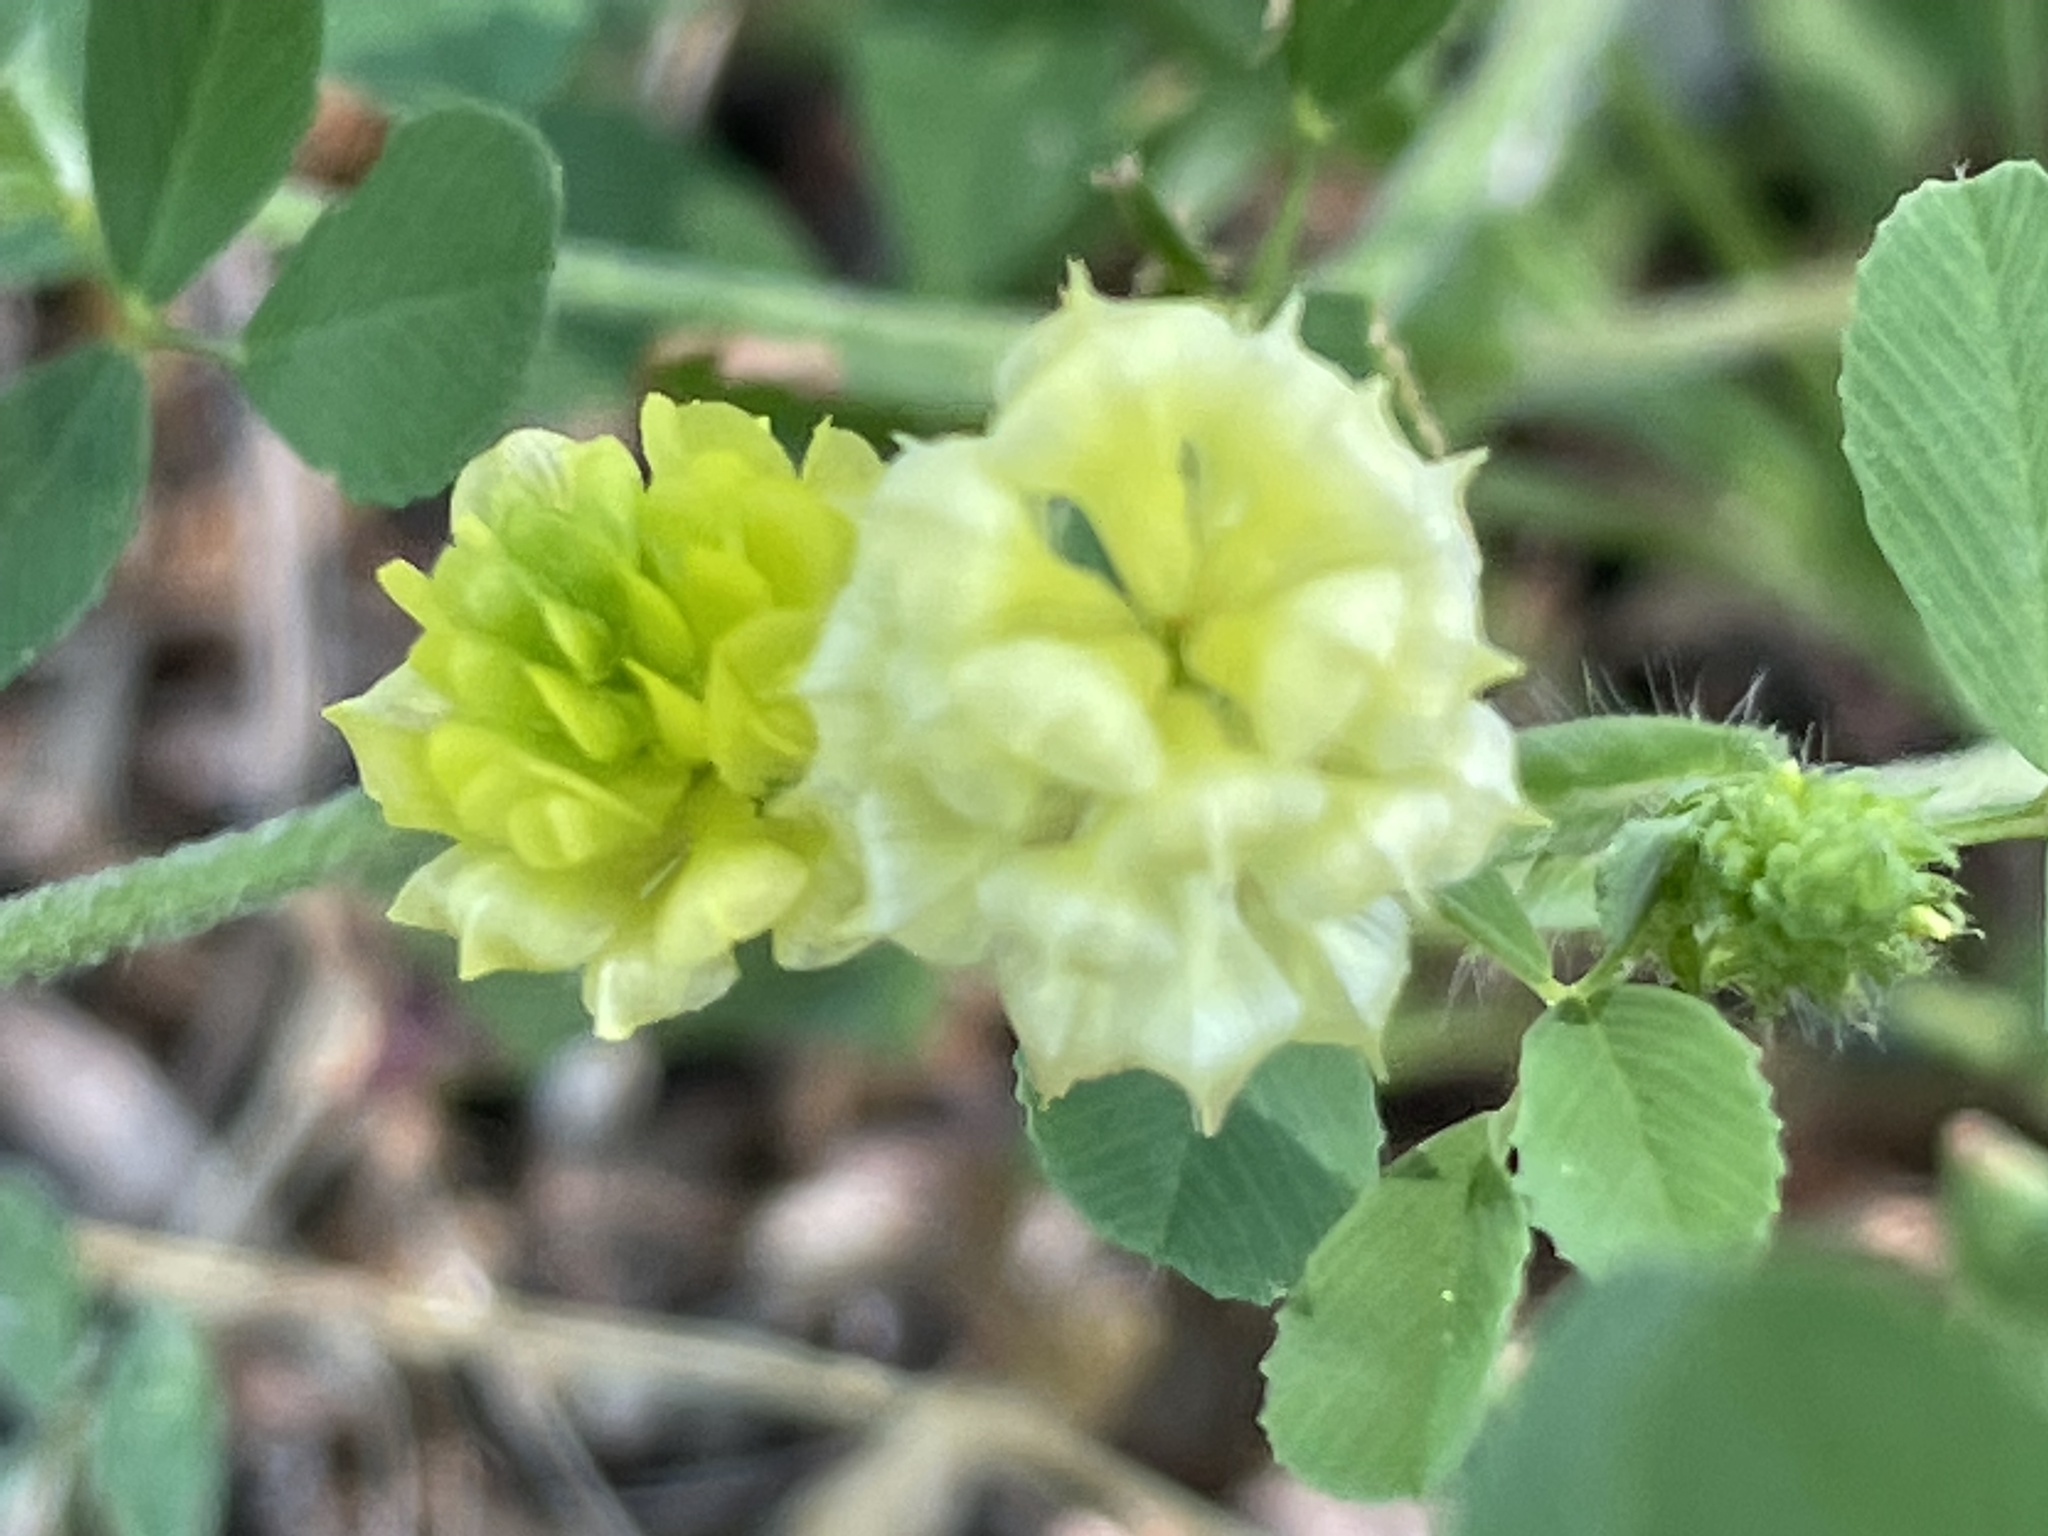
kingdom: Plantae
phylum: Tracheophyta
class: Magnoliopsida
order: Fabales
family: Fabaceae
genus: Trifolium
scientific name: Trifolium campestre
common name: Field clover
